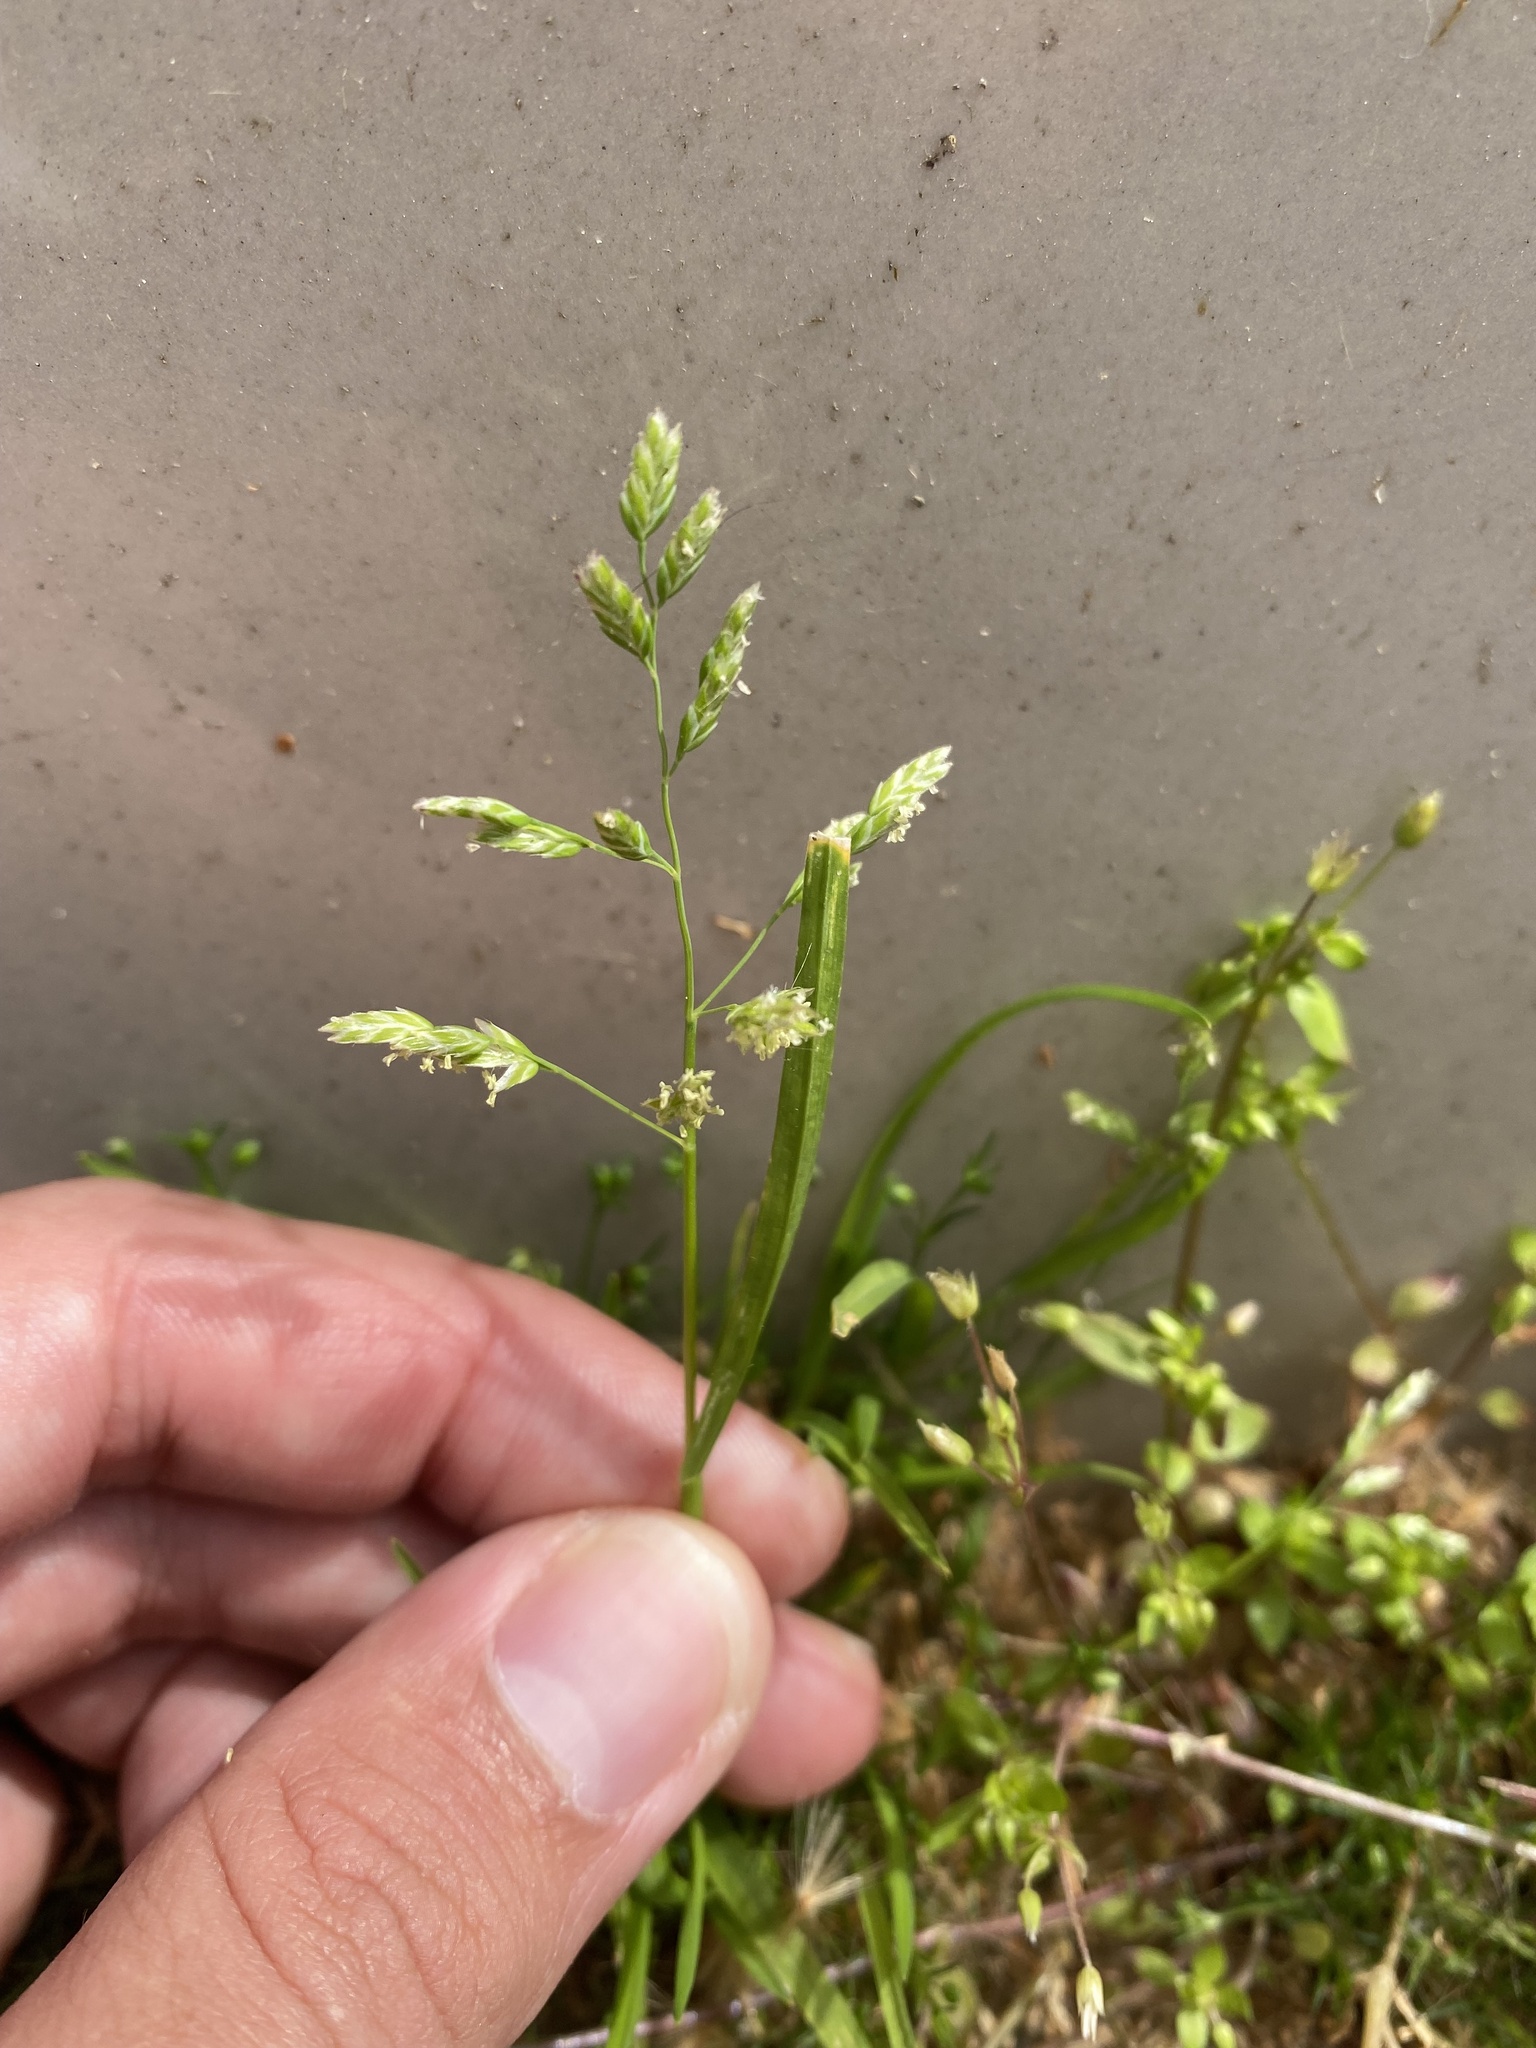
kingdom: Plantae
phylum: Tracheophyta
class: Liliopsida
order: Poales
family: Poaceae
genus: Poa
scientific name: Poa annua
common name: Annual bluegrass
